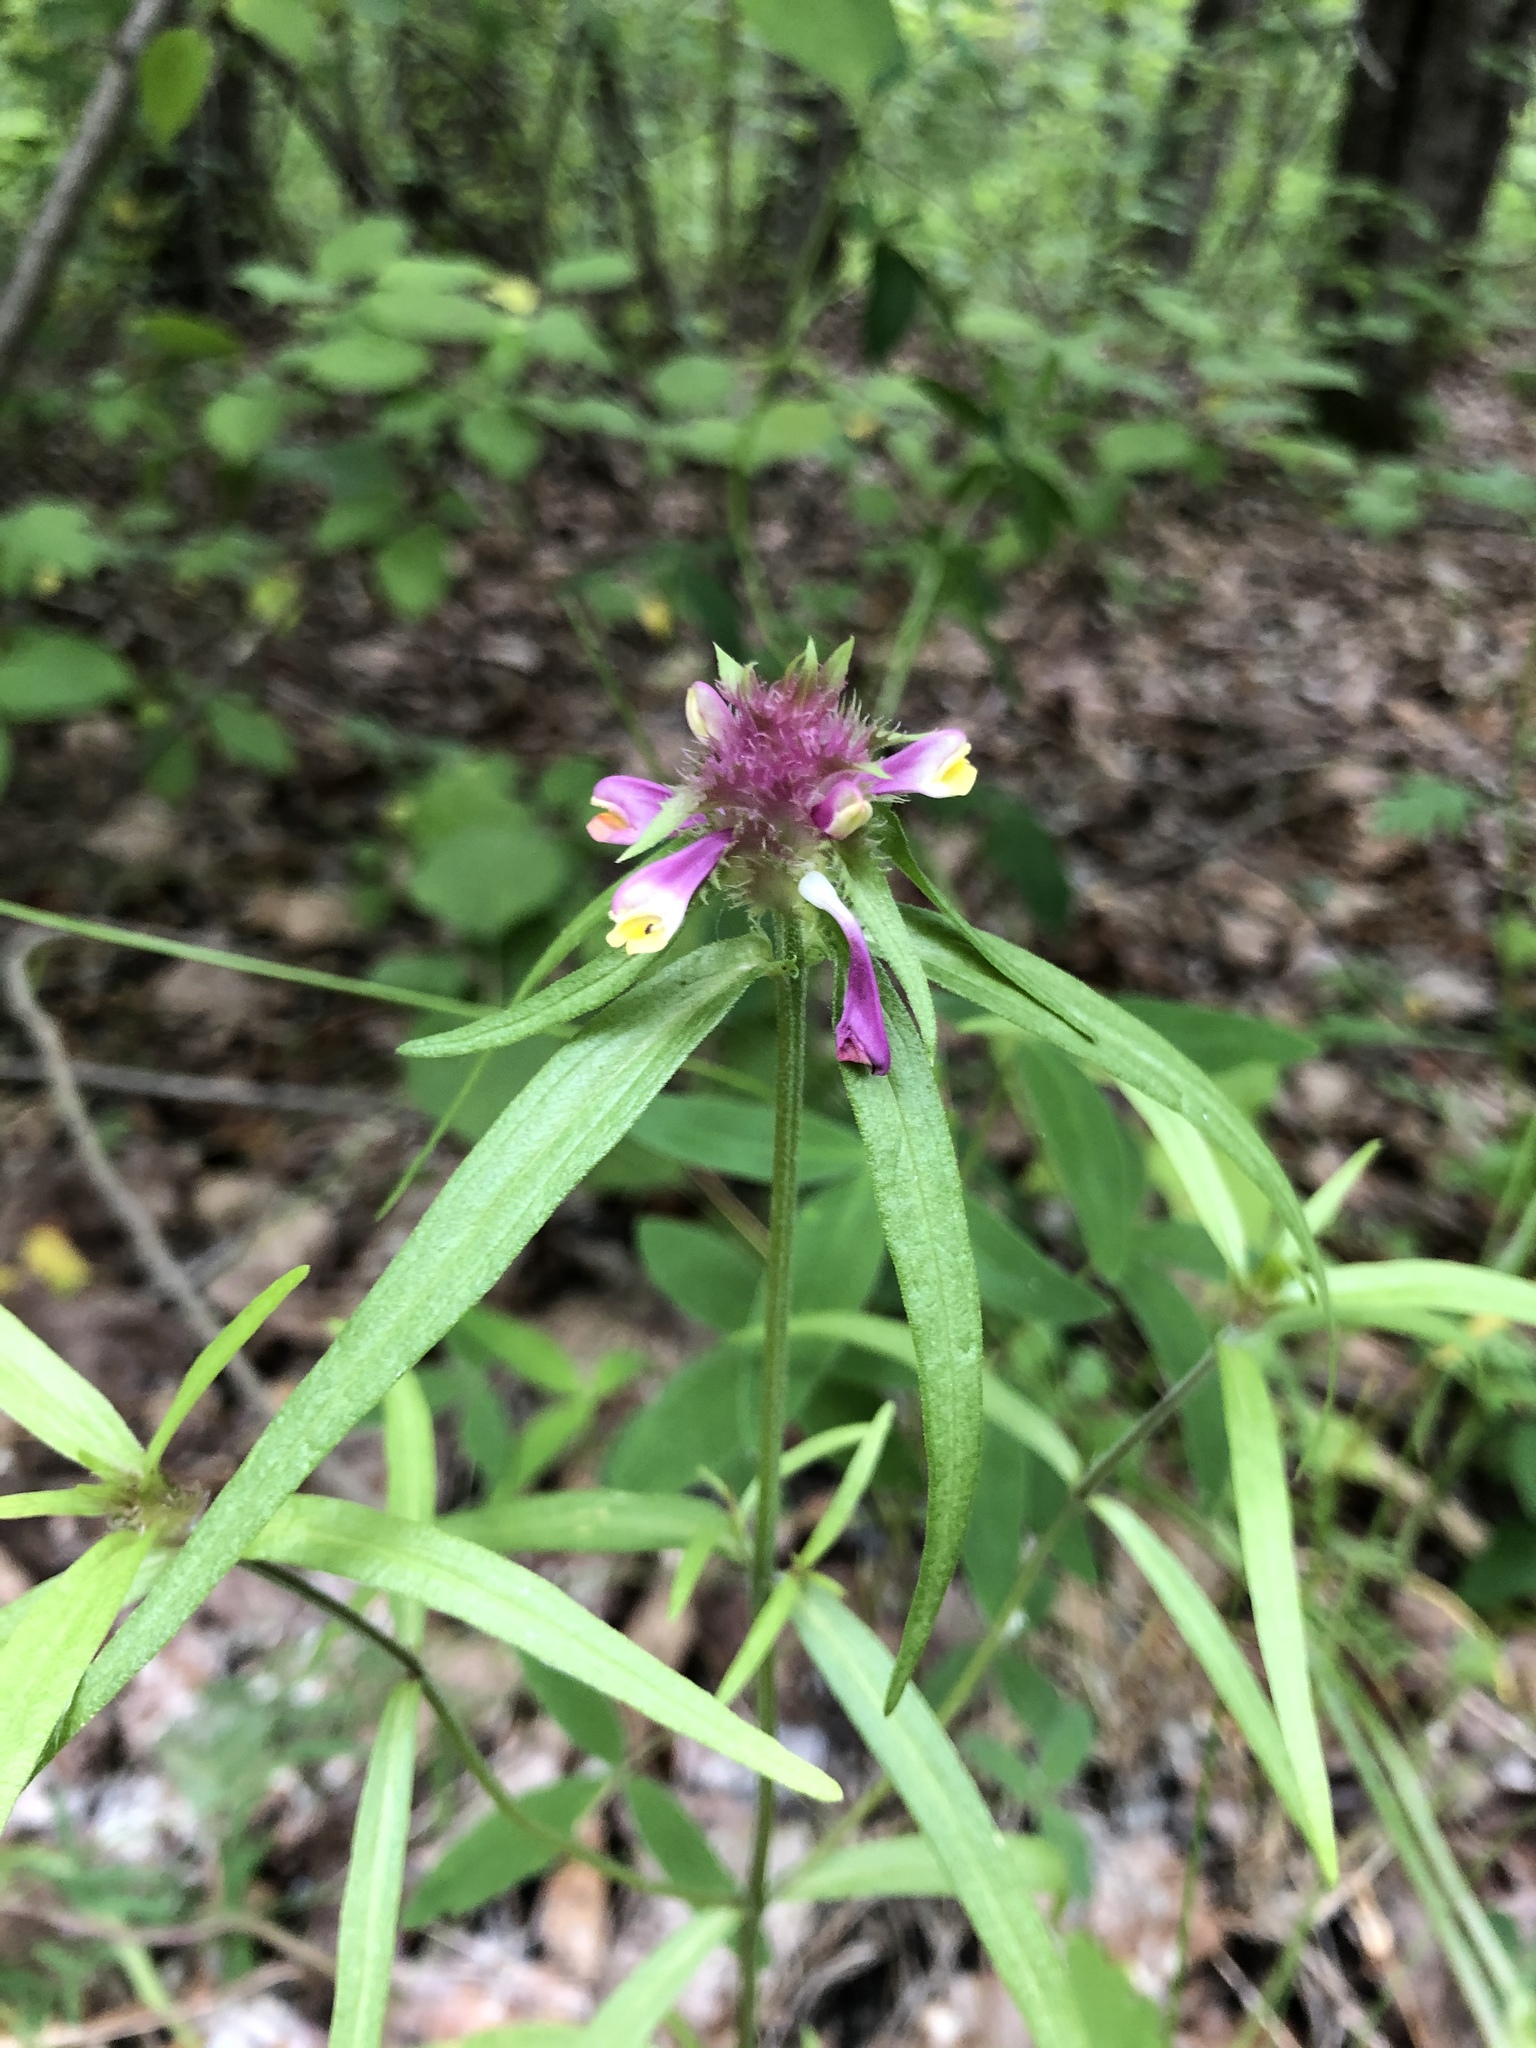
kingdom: Plantae
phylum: Tracheophyta
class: Magnoliopsida
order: Lamiales
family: Orobanchaceae
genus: Melampyrum
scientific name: Melampyrum cristatum
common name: Crested cow-wheat
